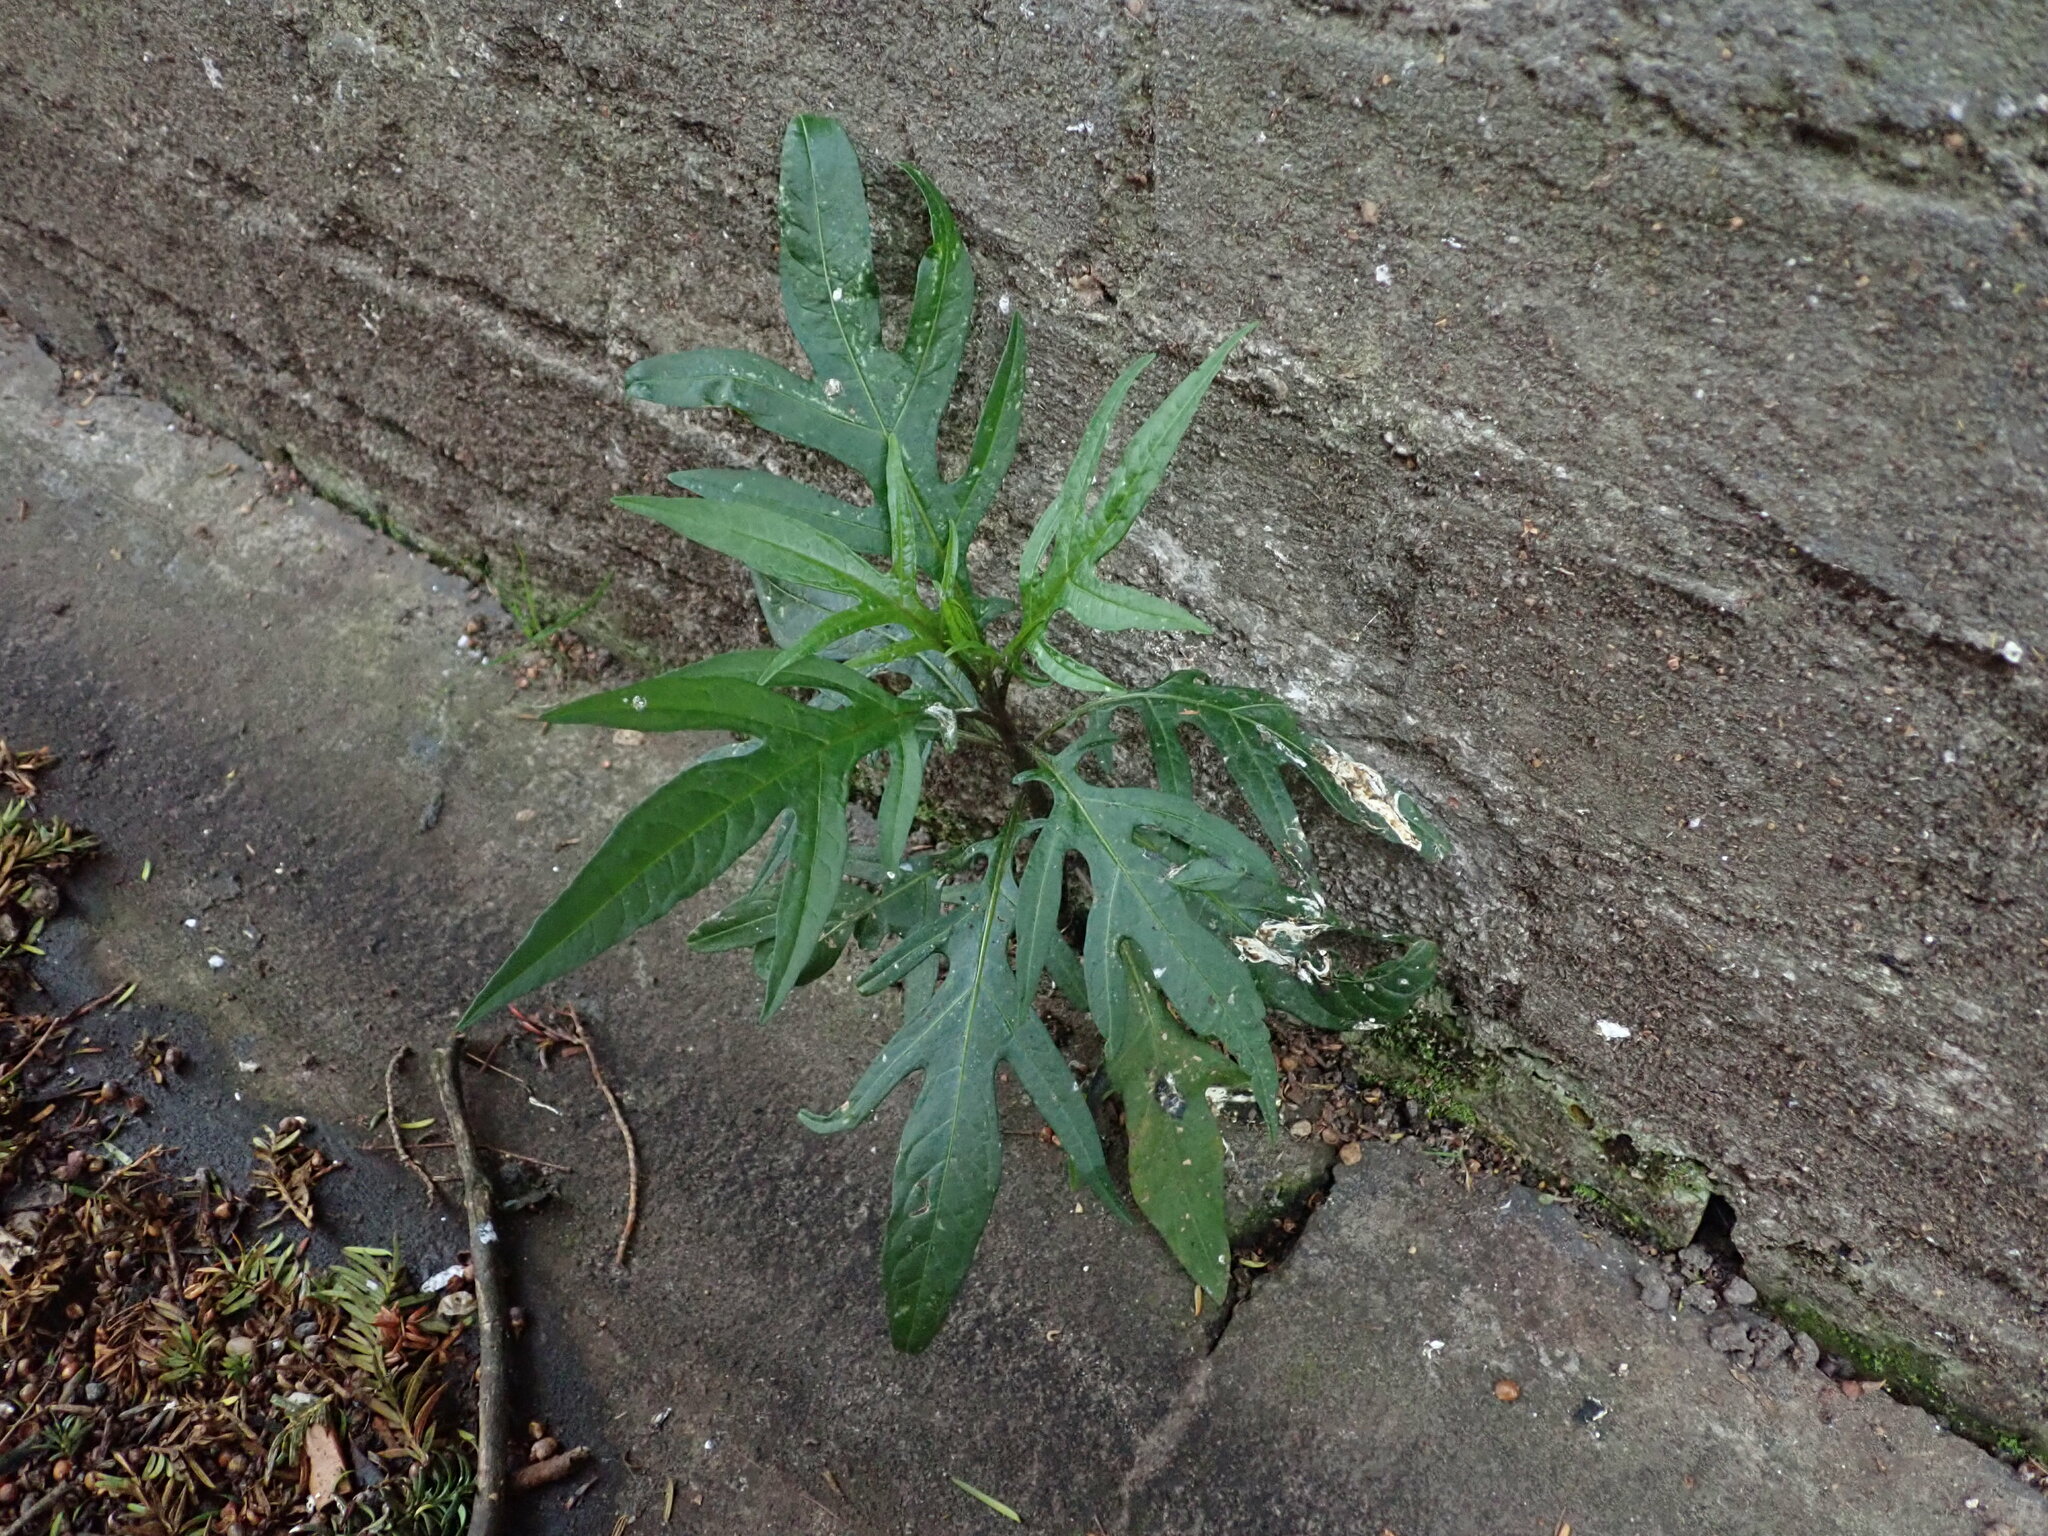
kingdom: Plantae
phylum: Tracheophyta
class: Magnoliopsida
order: Solanales
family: Solanaceae
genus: Solanum
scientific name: Solanum laciniatum
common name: Kangaroo-apple
